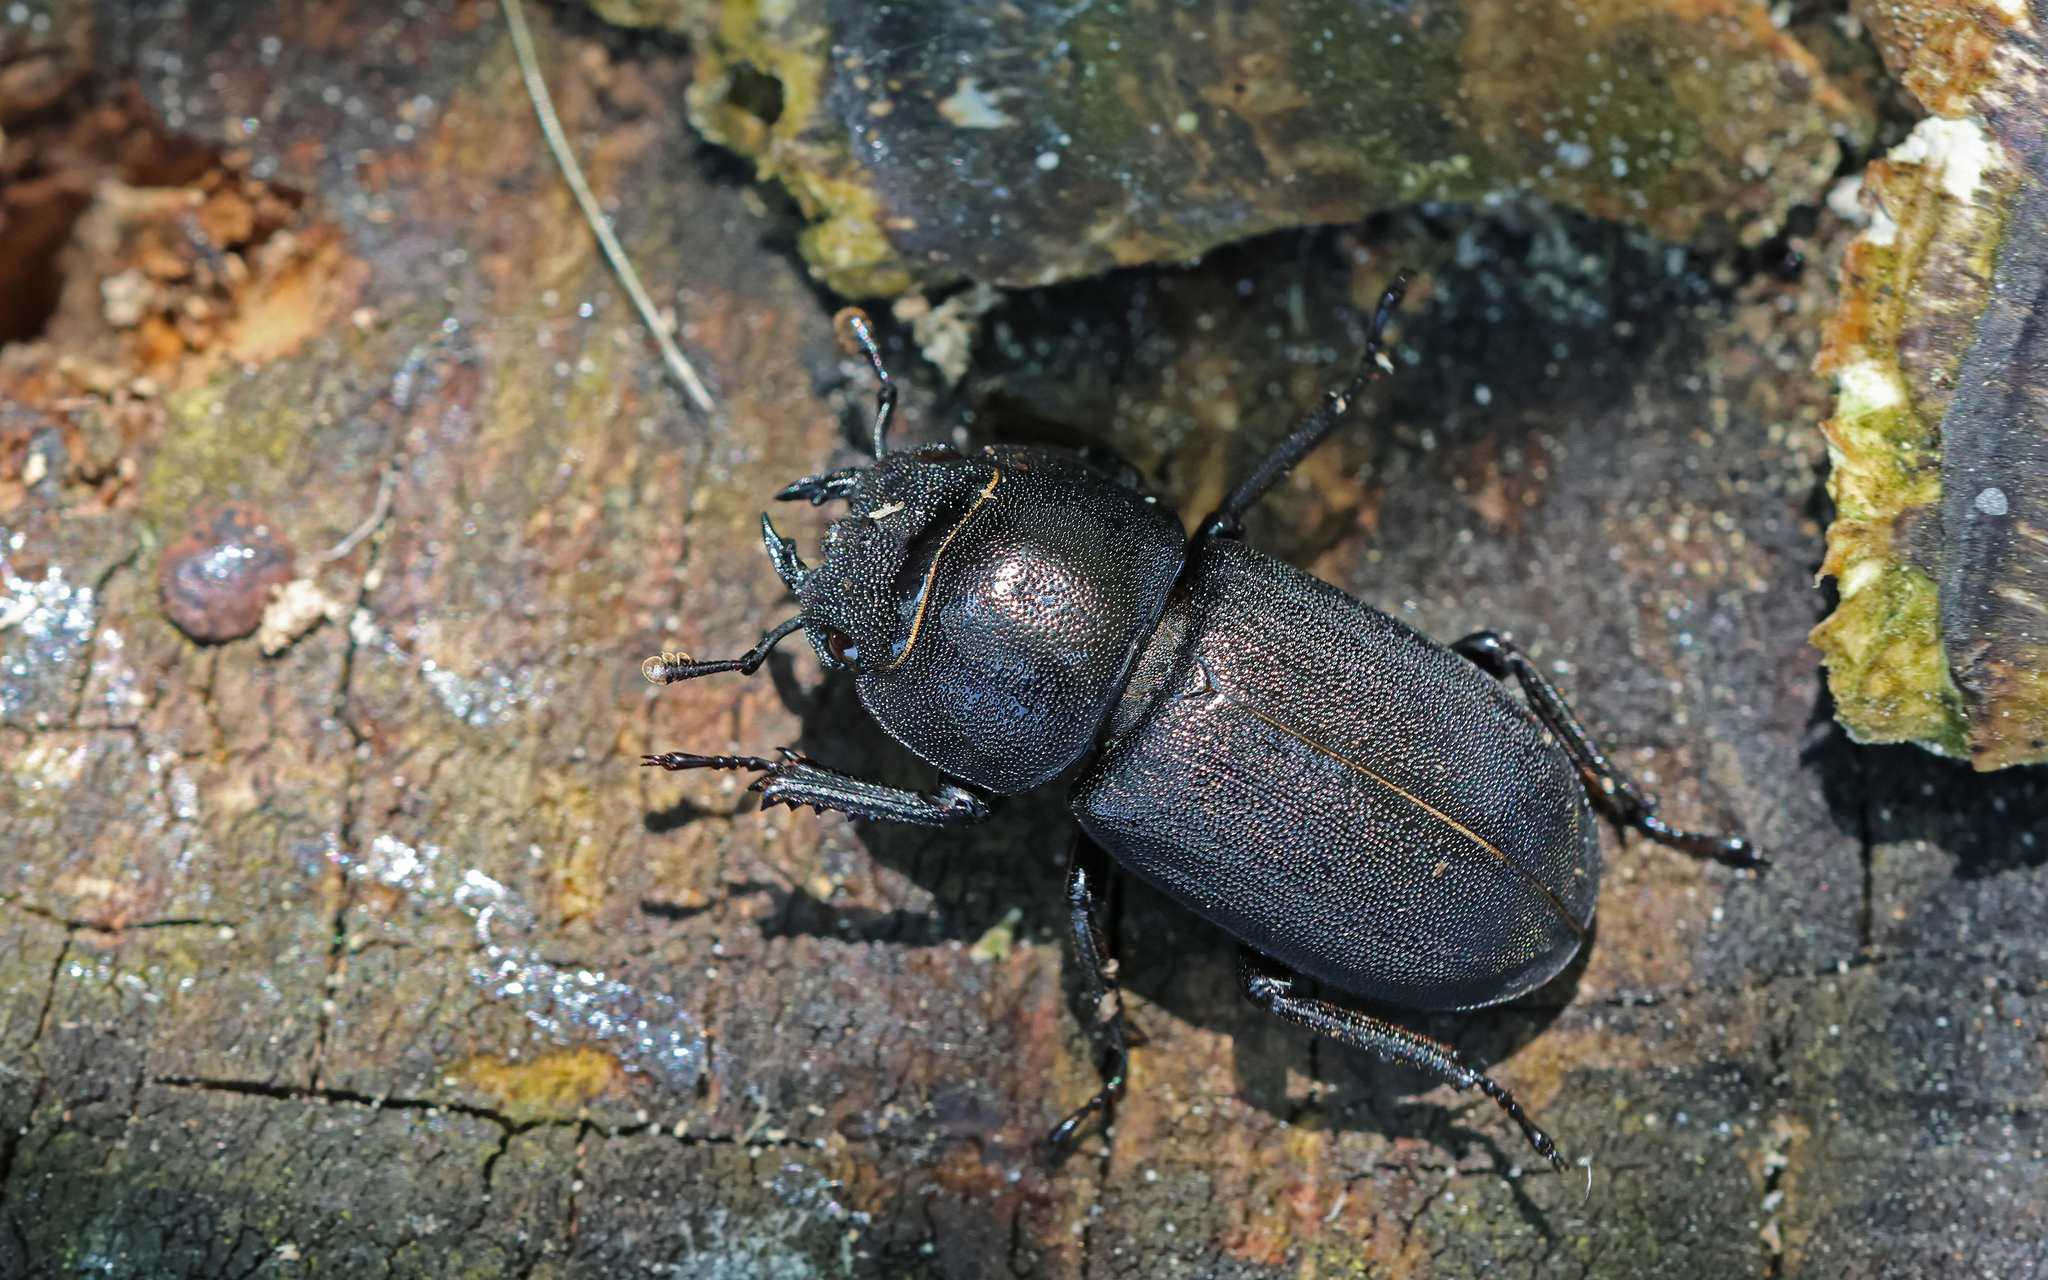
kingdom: Animalia
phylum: Arthropoda
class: Insecta
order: Coleoptera
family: Lucanidae
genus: Dorcus
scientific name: Dorcus parallelipipedus
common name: Lesser stag beetle
